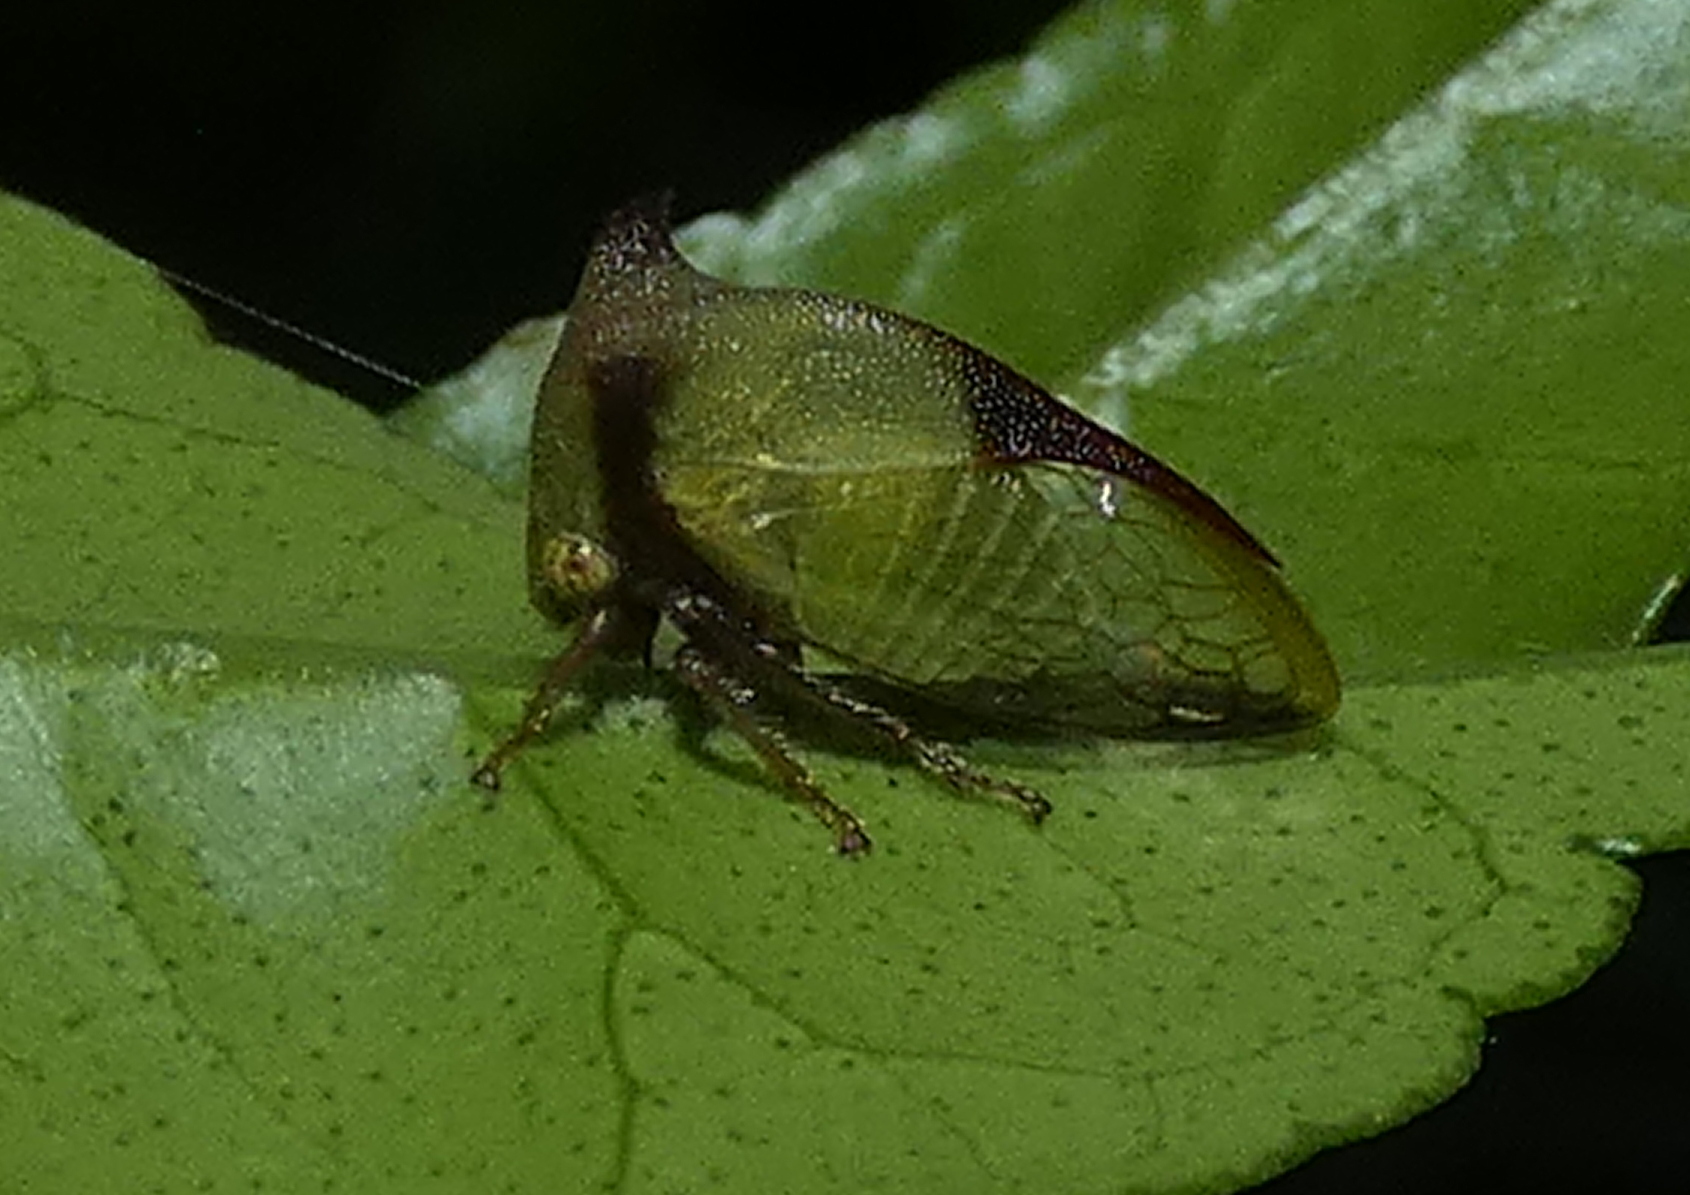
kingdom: Animalia
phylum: Arthropoda
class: Insecta
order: Hemiptera
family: Membracidae
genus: Ceresa
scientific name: Ceresa ustulata
